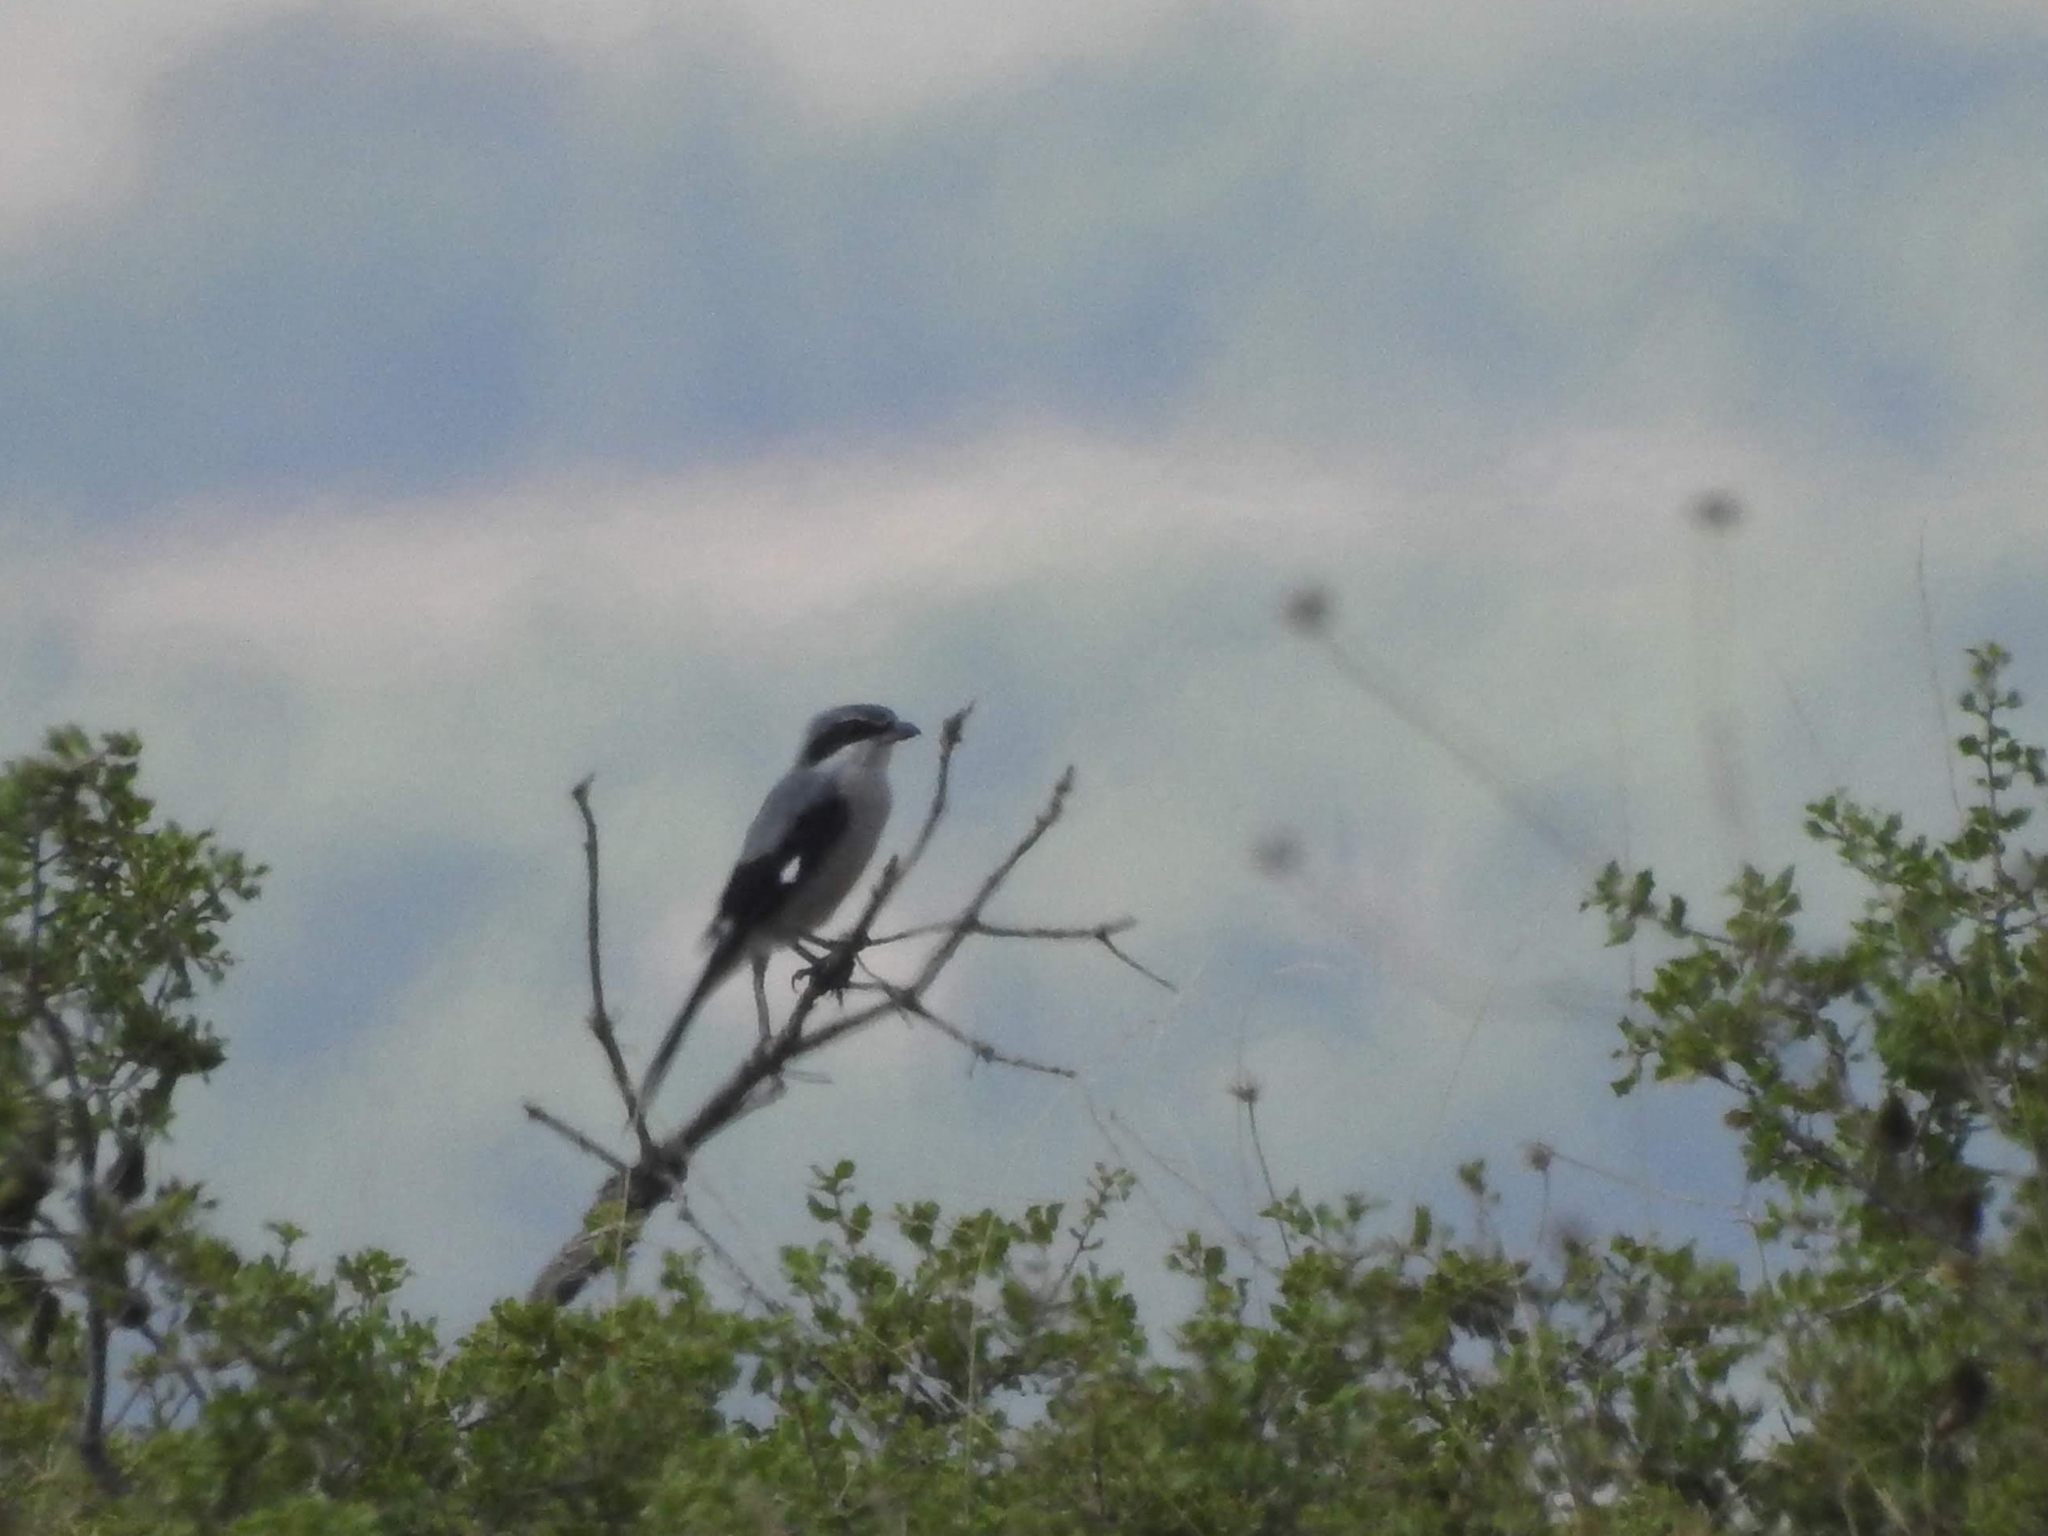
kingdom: Animalia
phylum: Chordata
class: Aves
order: Passeriformes
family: Laniidae
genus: Lanius
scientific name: Lanius meridionalis
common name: Iberian grey shrike
